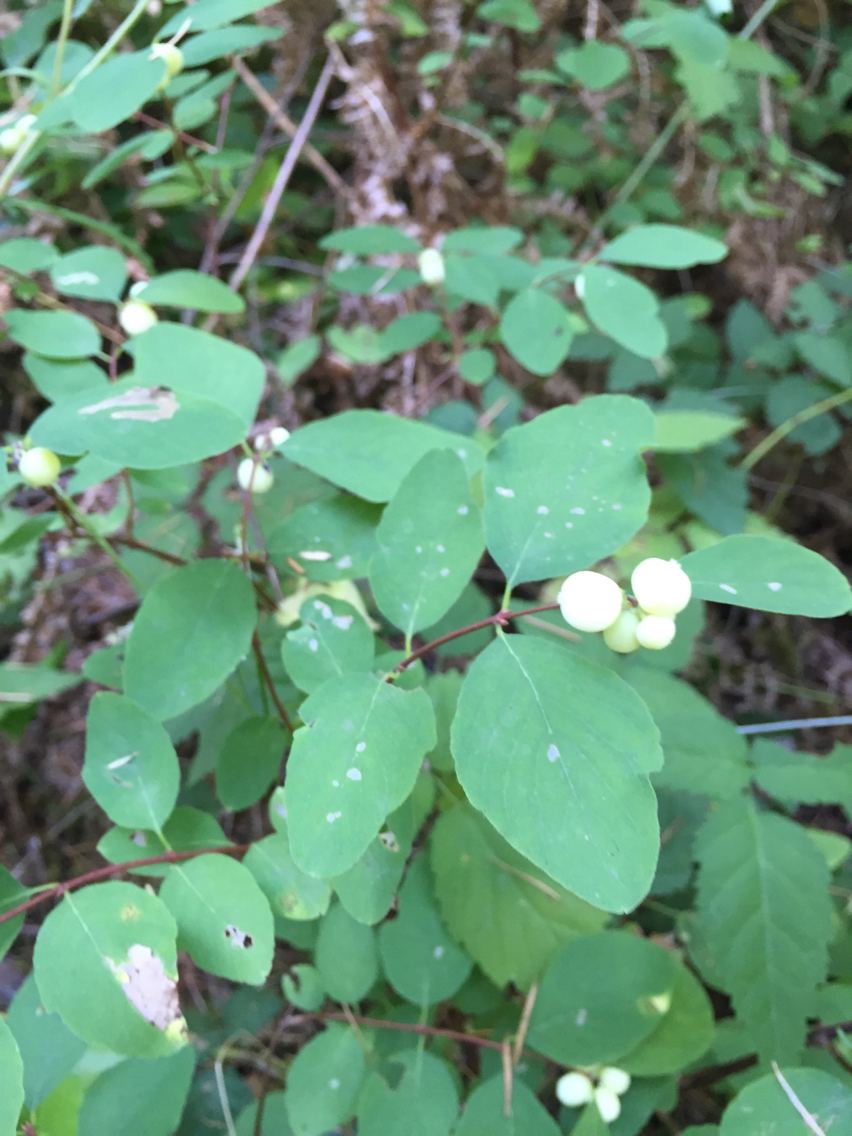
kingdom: Plantae
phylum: Tracheophyta
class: Magnoliopsida
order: Dipsacales
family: Caprifoliaceae
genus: Symphoricarpos
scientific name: Symphoricarpos albus
